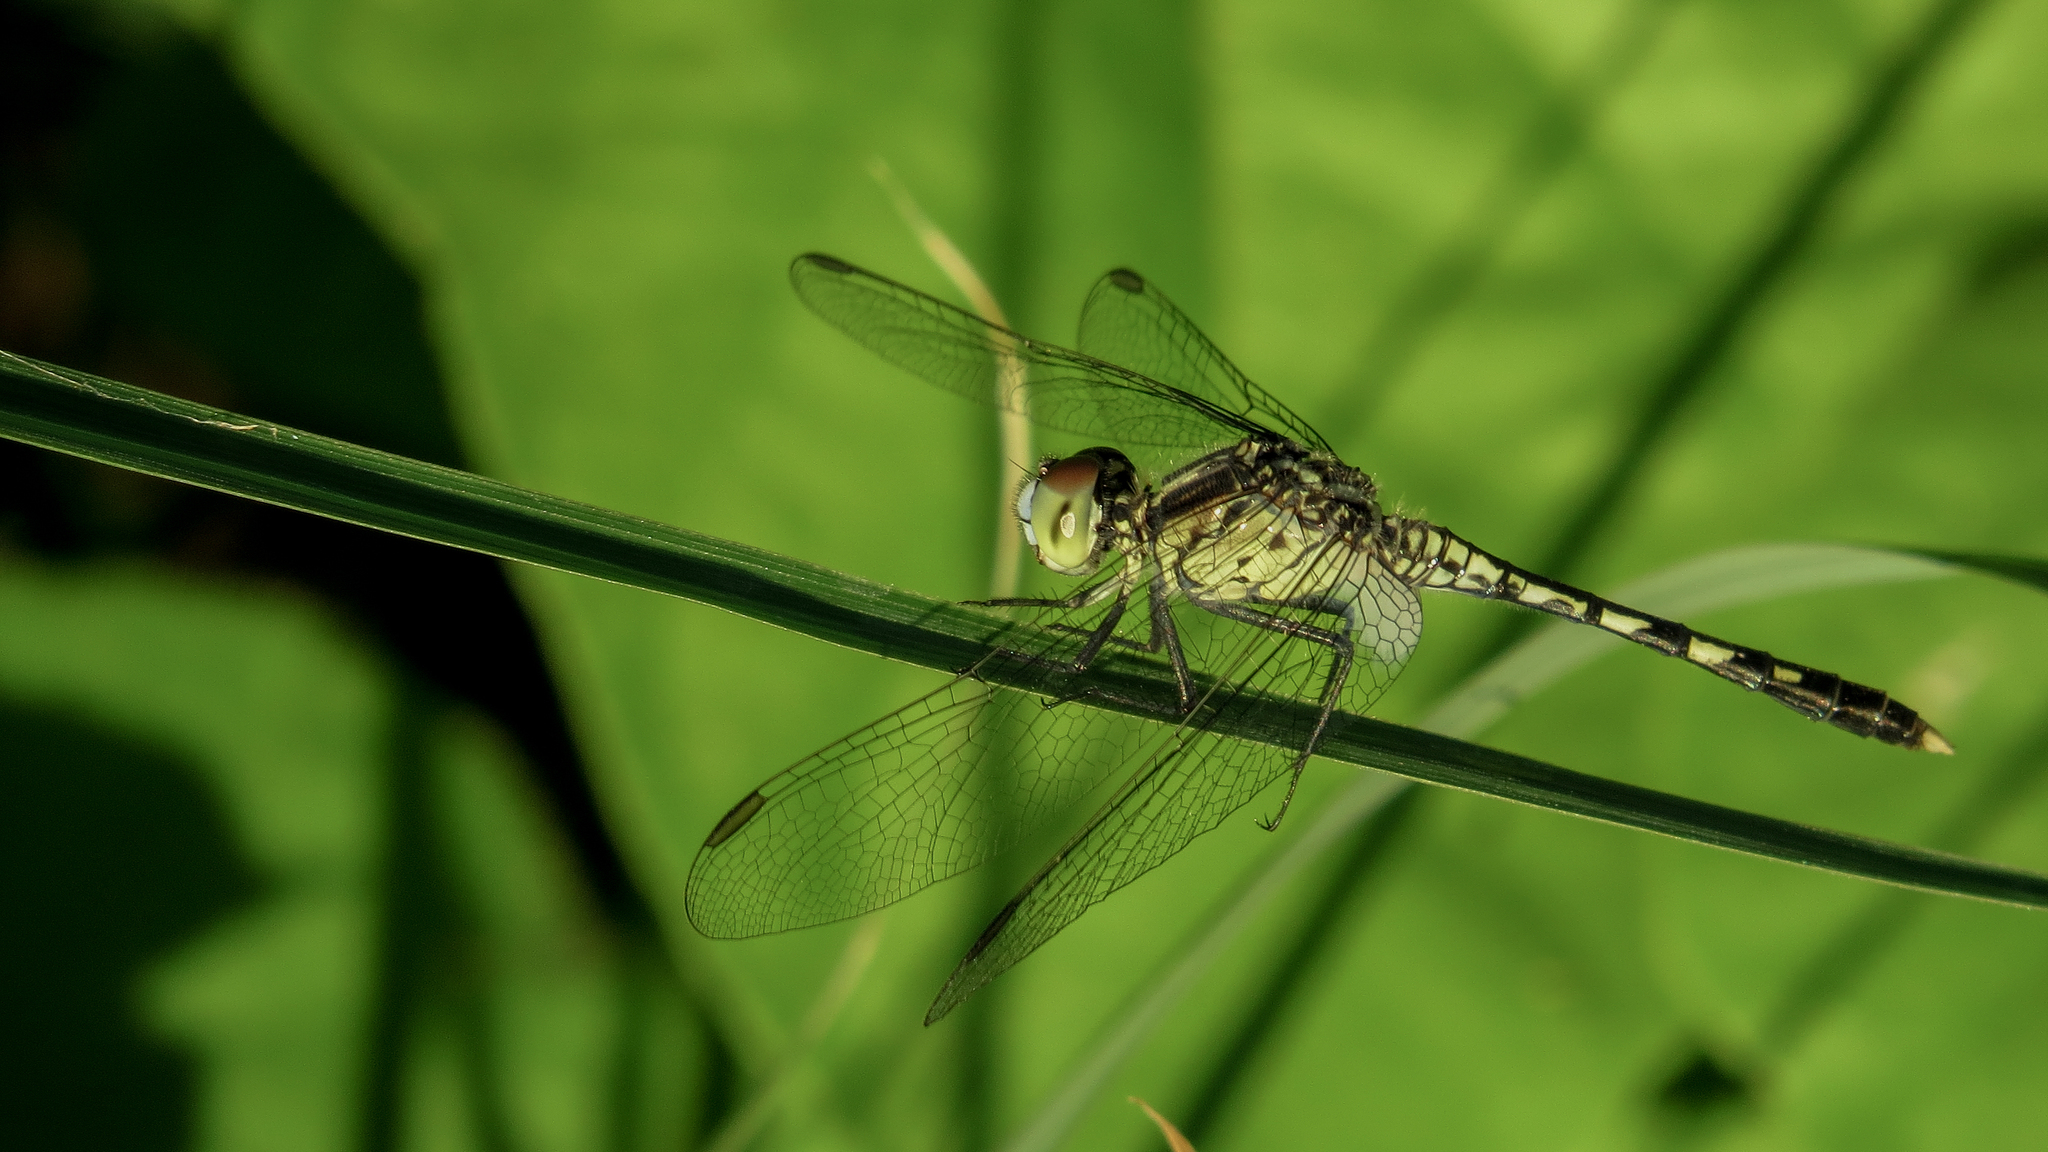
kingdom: Animalia
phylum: Arthropoda
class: Insecta
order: Odonata
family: Libellulidae
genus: Diplacodes
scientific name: Diplacodes trivialis
